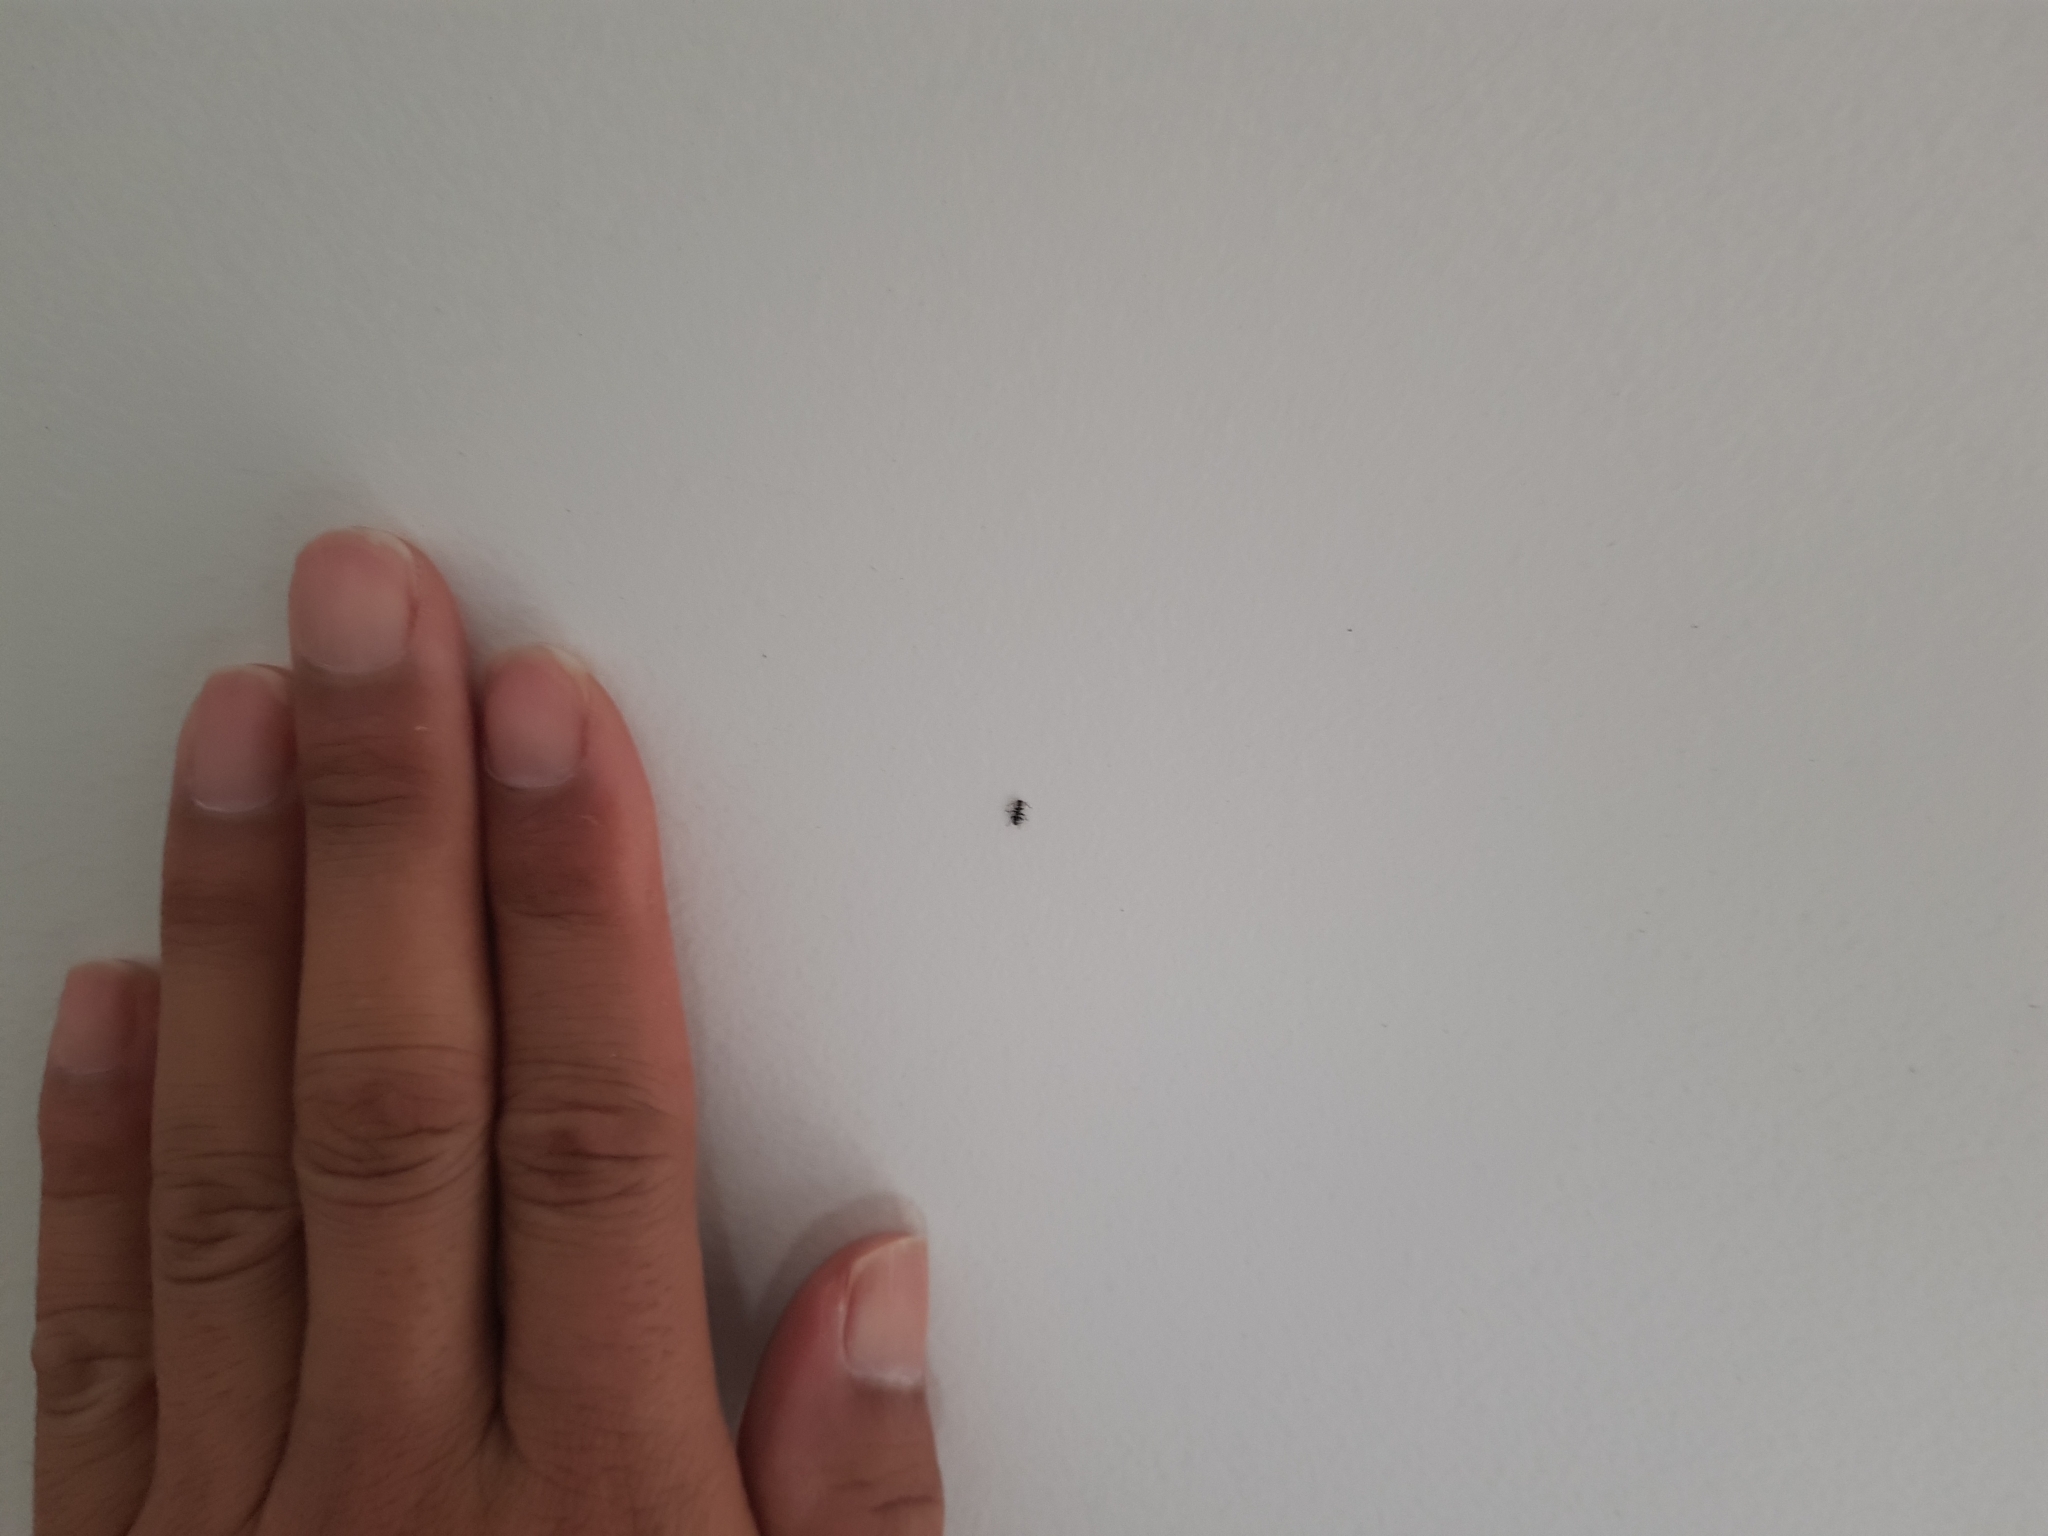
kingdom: Animalia
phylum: Arthropoda
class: Insecta
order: Coleoptera
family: Anthicidae
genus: Floydwernerius
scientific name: Floydwernerius
